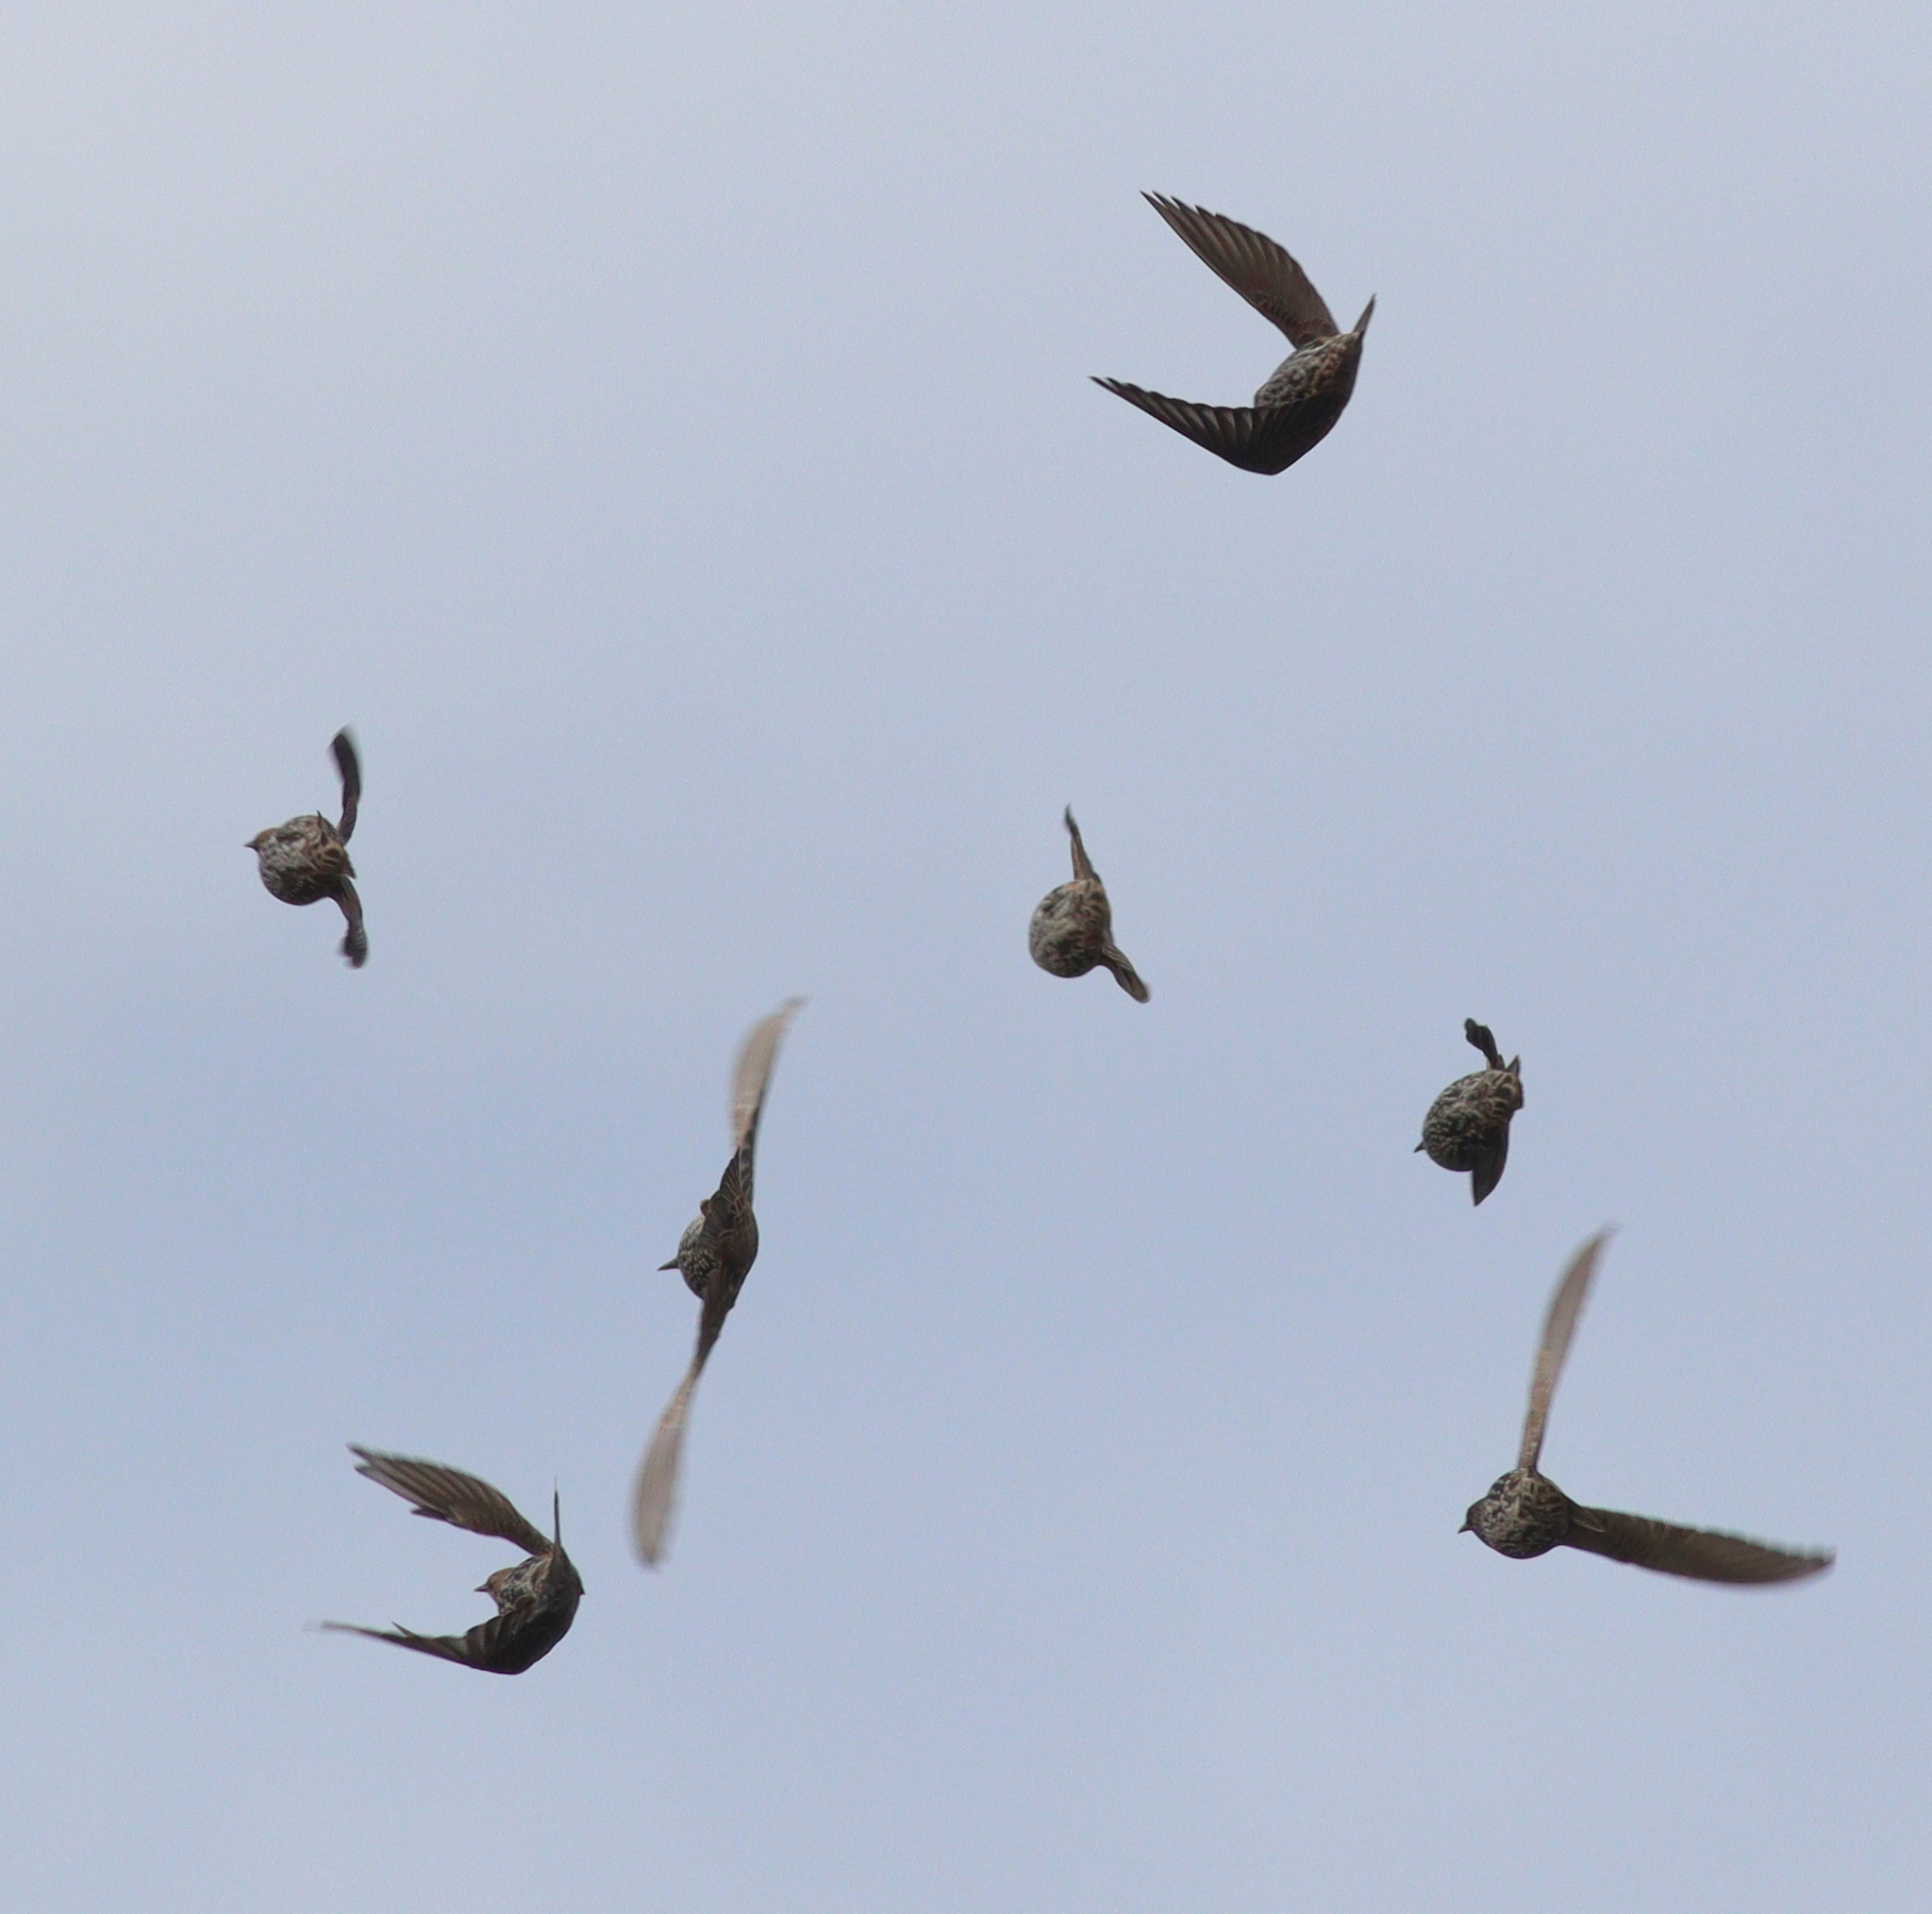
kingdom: Animalia
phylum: Chordata
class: Aves
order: Passeriformes
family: Sturnidae
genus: Sturnus
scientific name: Sturnus vulgaris
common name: Common starling
